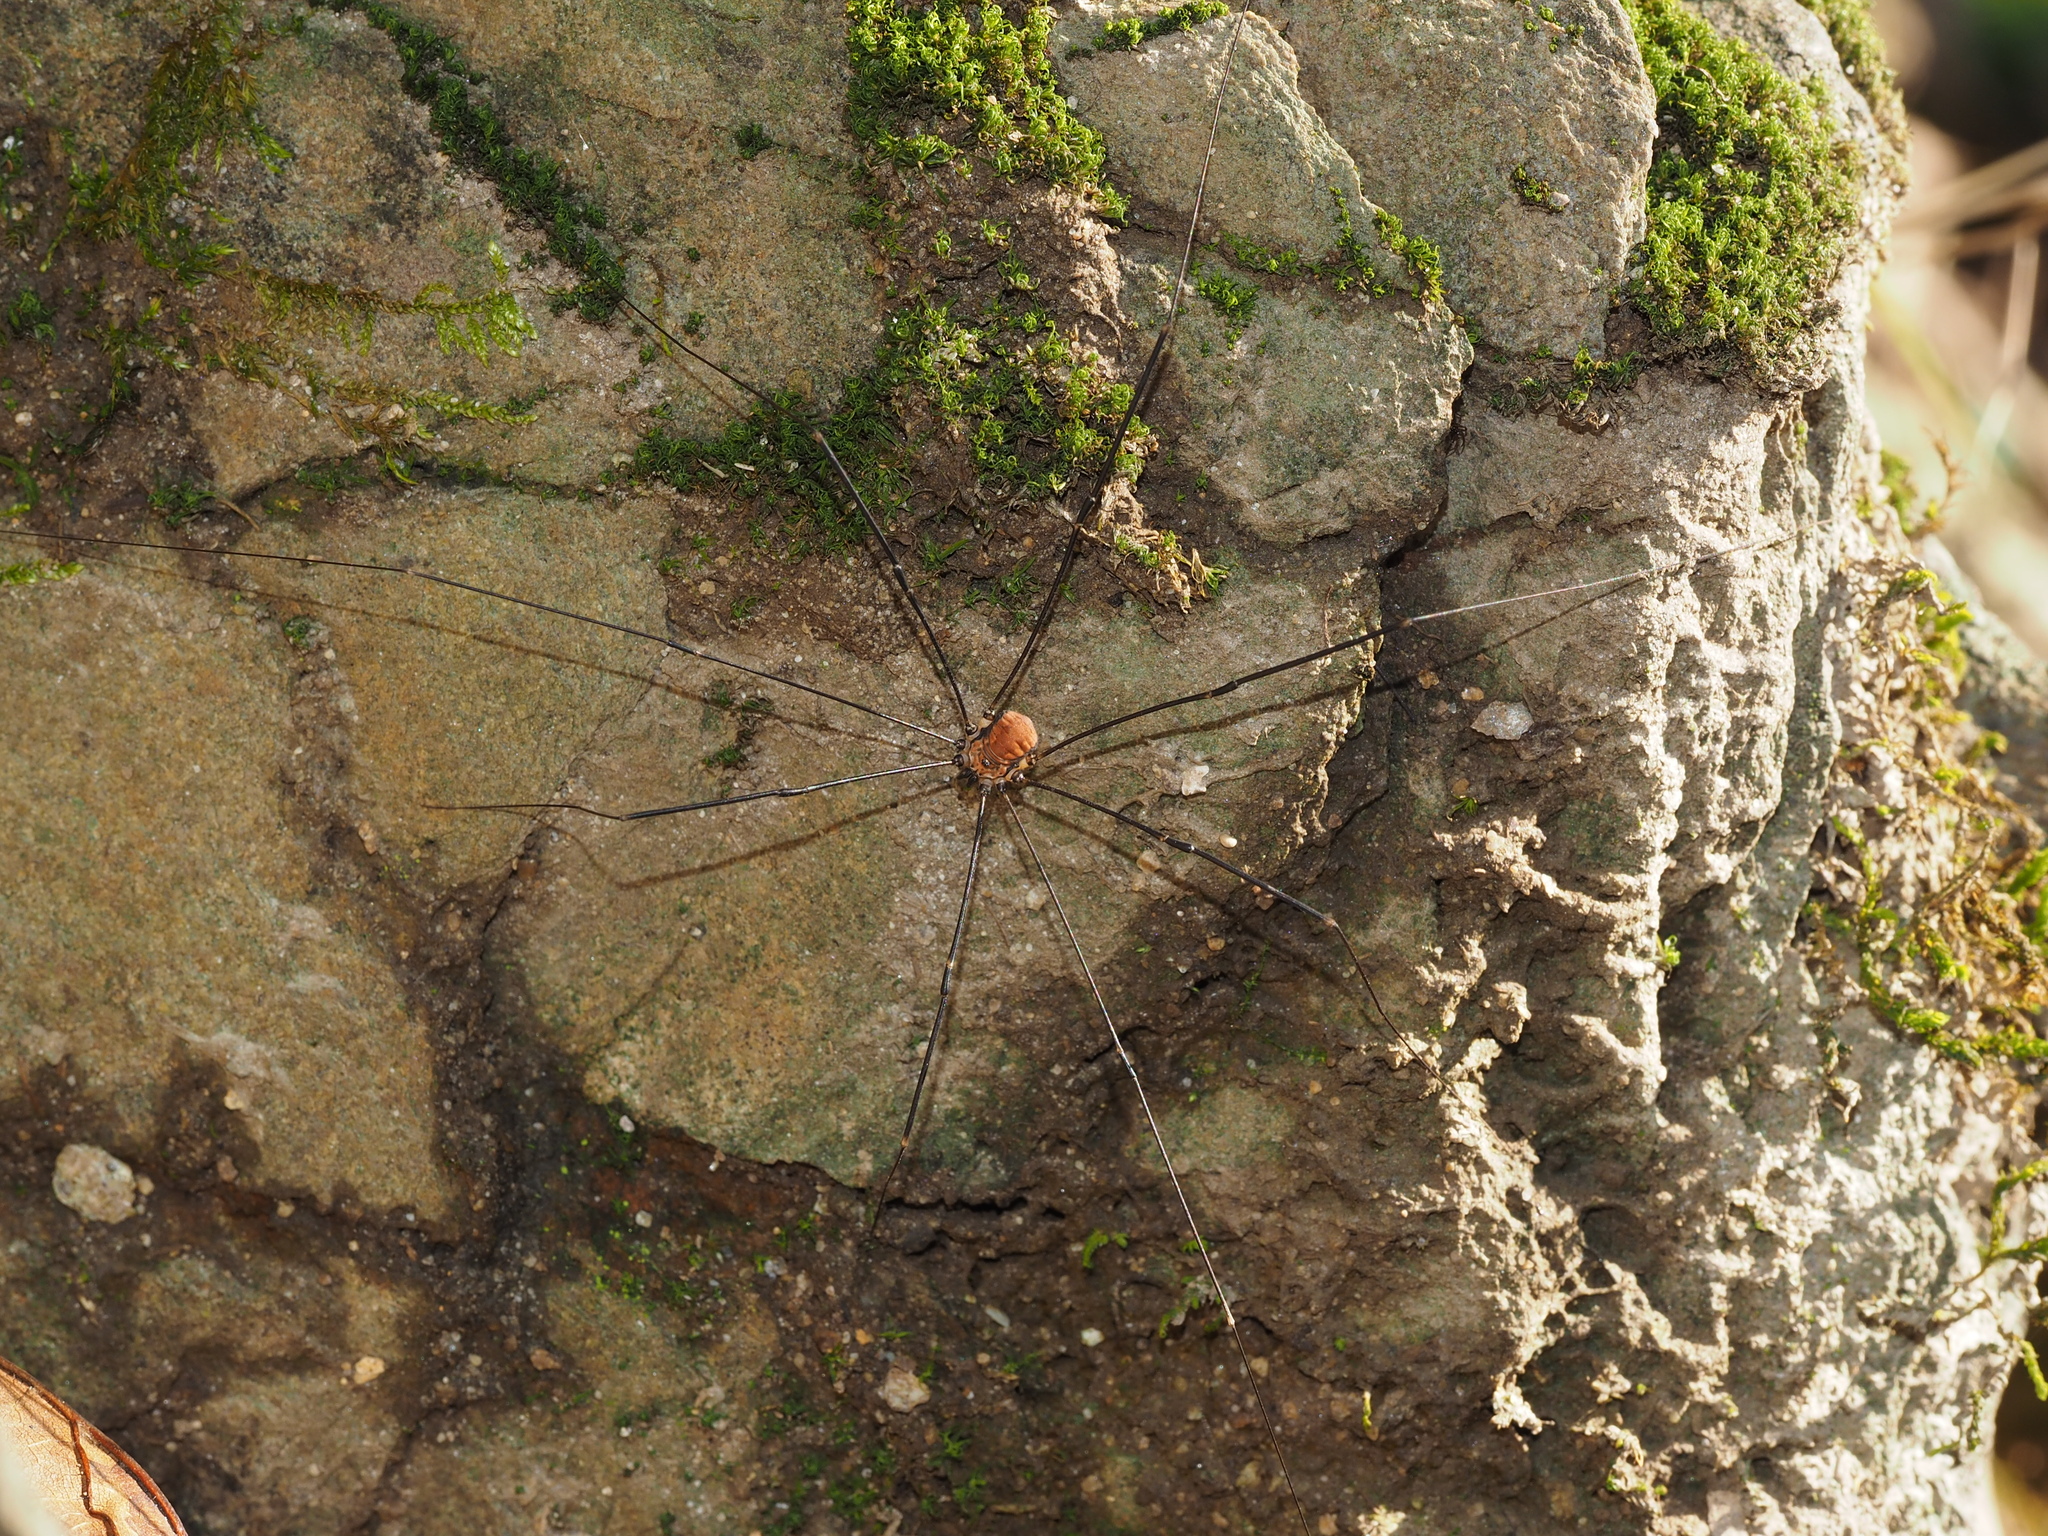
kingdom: Animalia
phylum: Arthropoda
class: Arachnida
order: Opiliones
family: Sclerosomatidae
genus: Leiobunum
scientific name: Leiobunum limbatum
